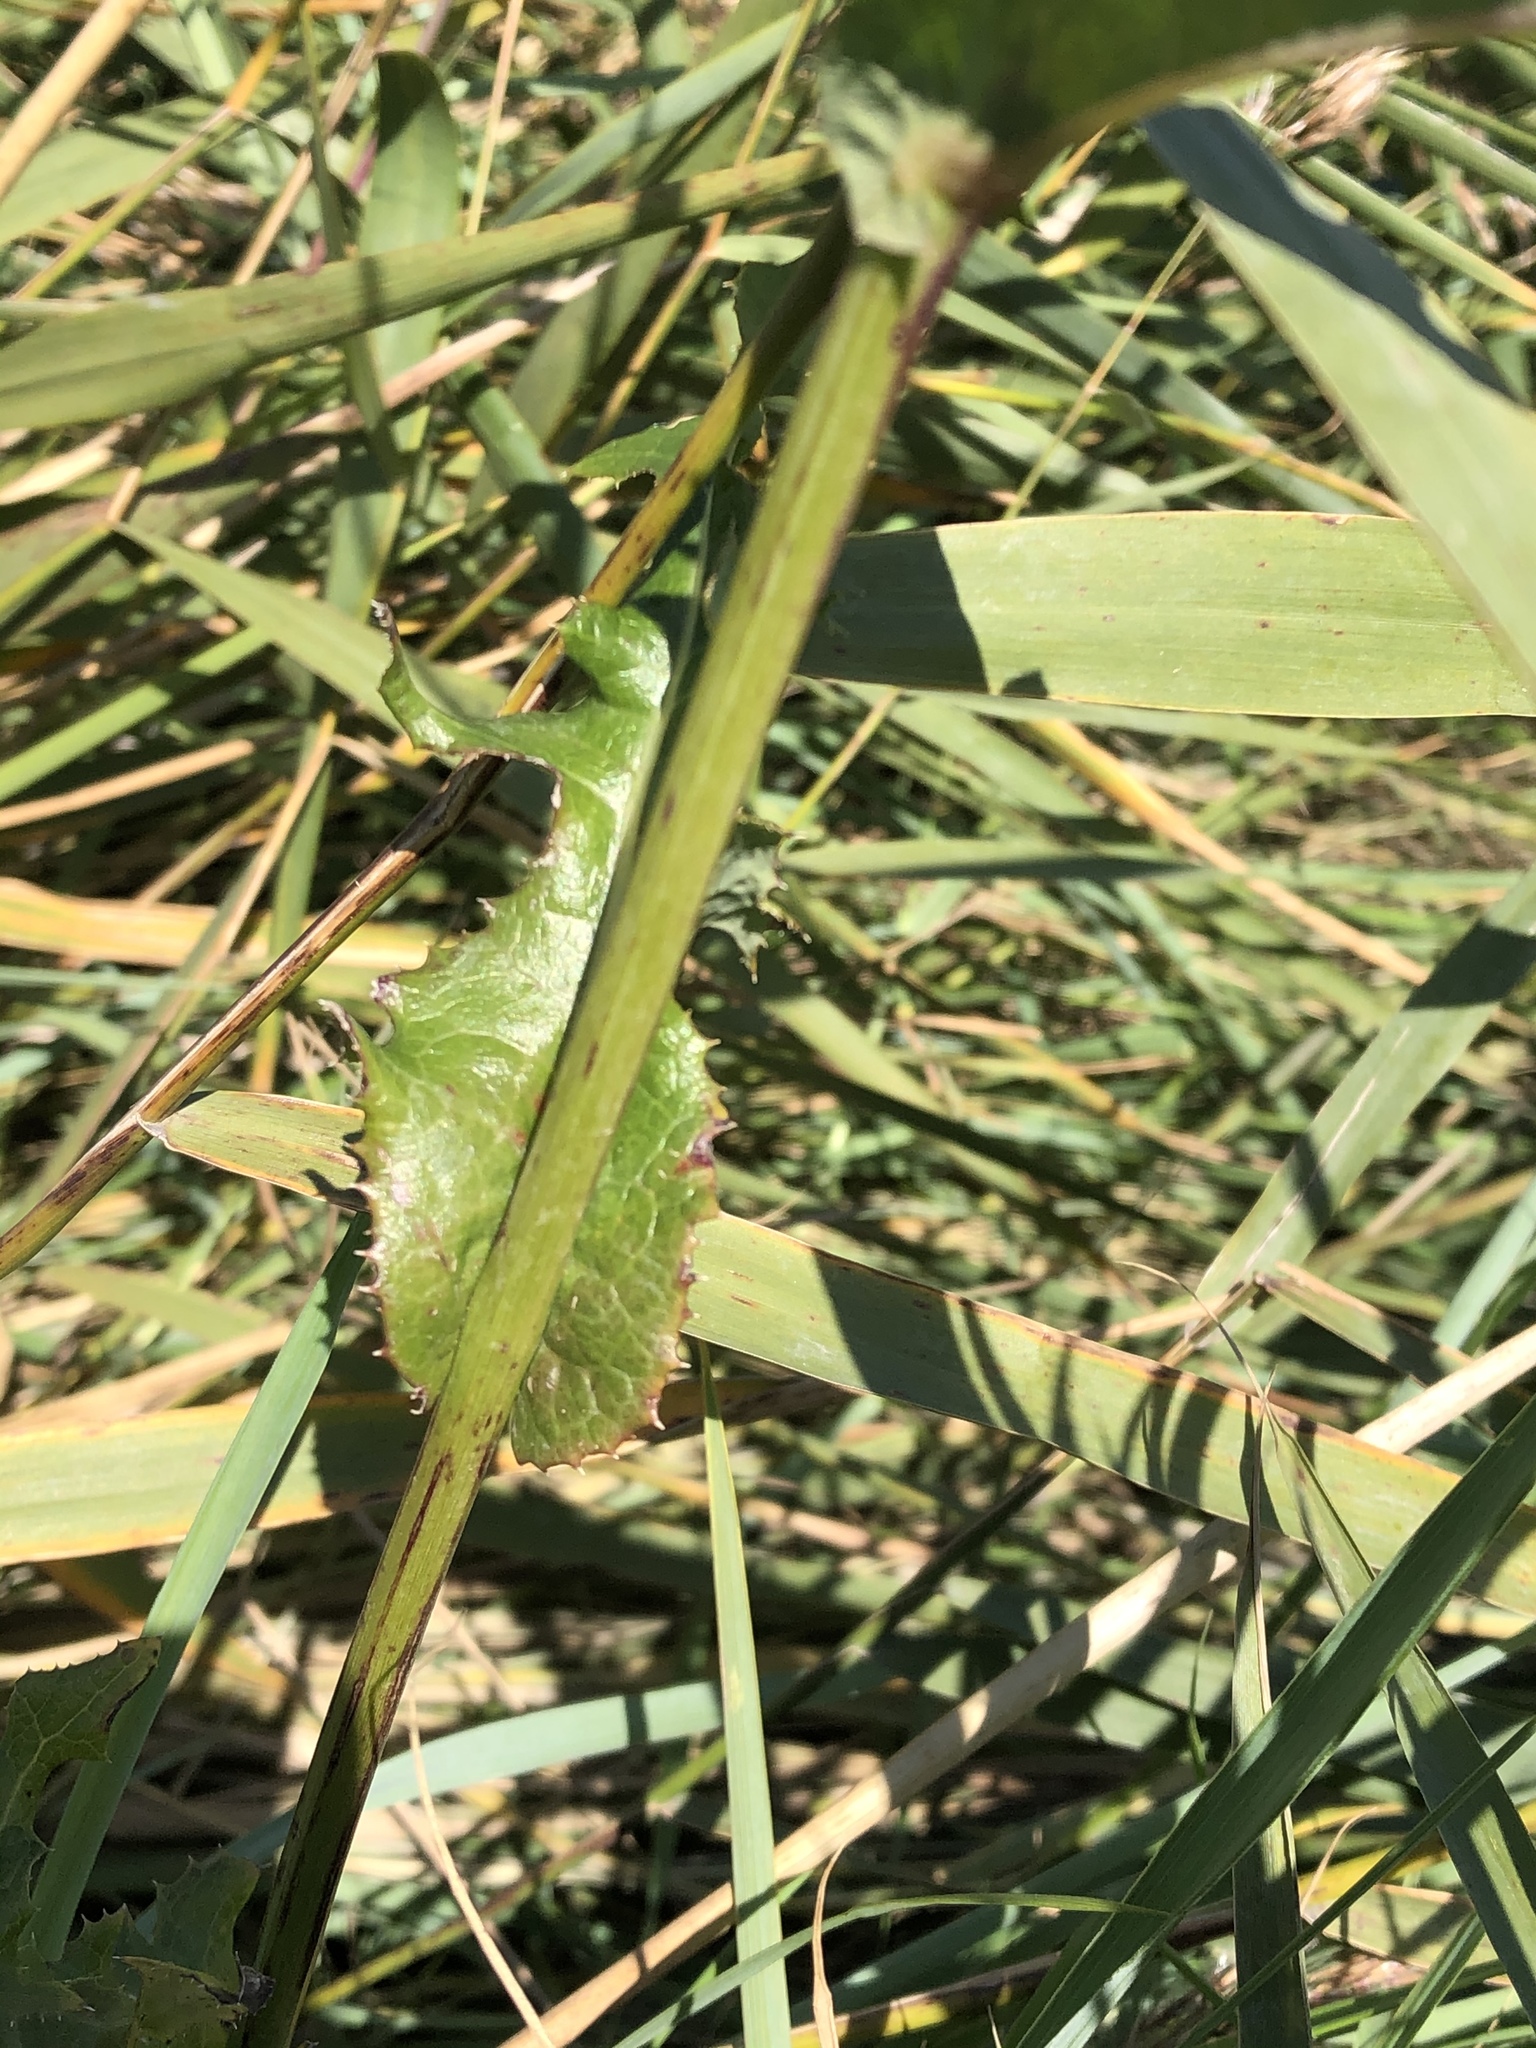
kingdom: Plantae
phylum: Tracheophyta
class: Magnoliopsida
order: Asterales
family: Asteraceae
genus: Sonchus
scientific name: Sonchus arvensis
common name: Perennial sow-thistle
